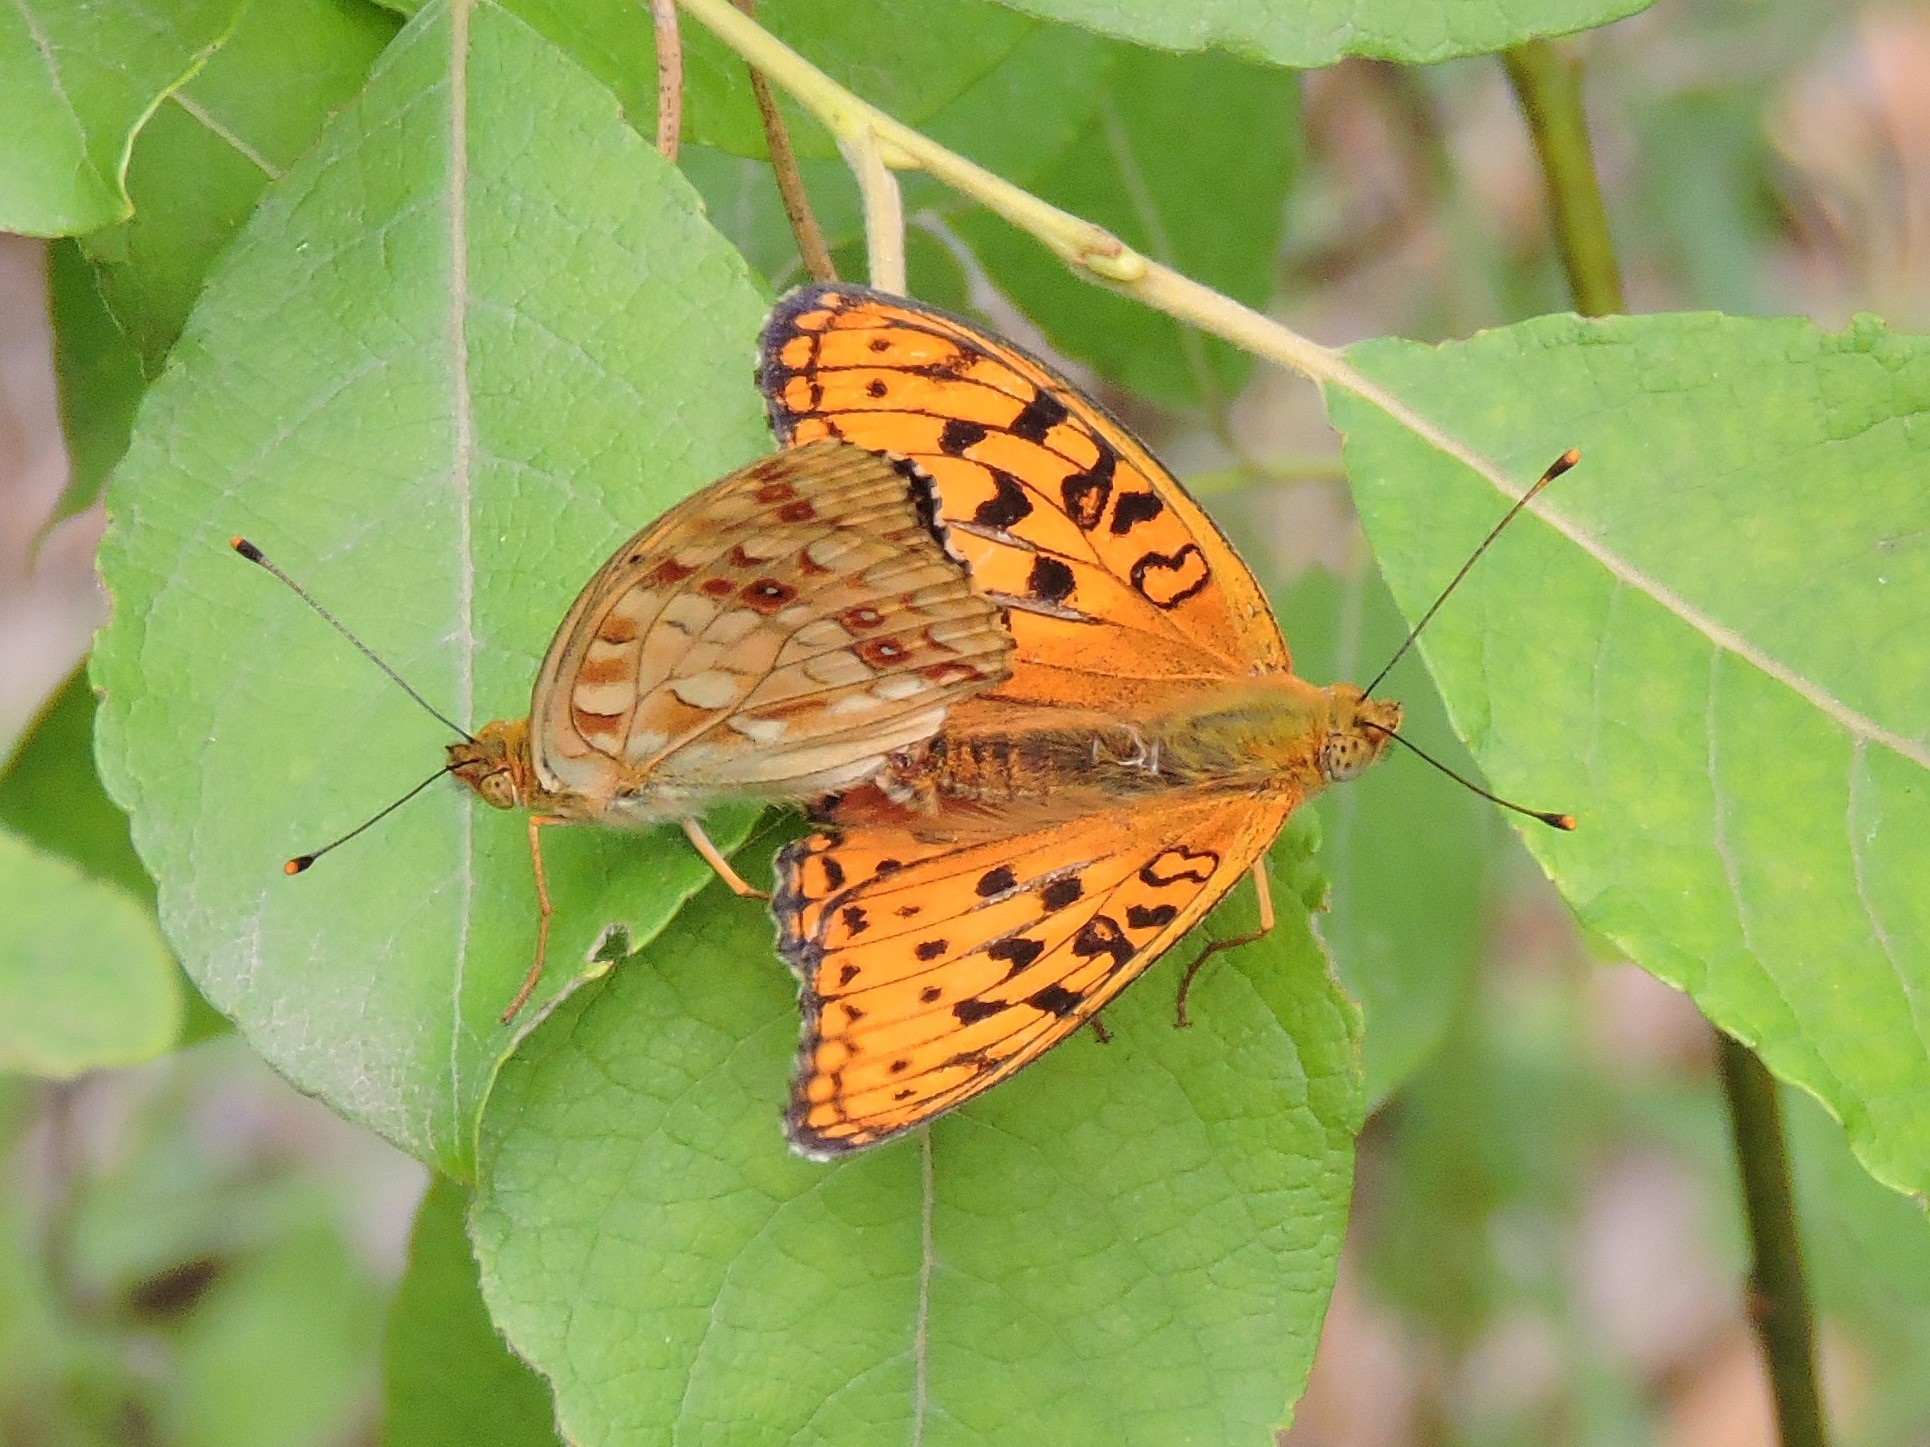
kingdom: Animalia
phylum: Arthropoda
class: Insecta
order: Lepidoptera
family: Nymphalidae
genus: Fabriciana
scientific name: Fabriciana adippe
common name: High brown fritillary
